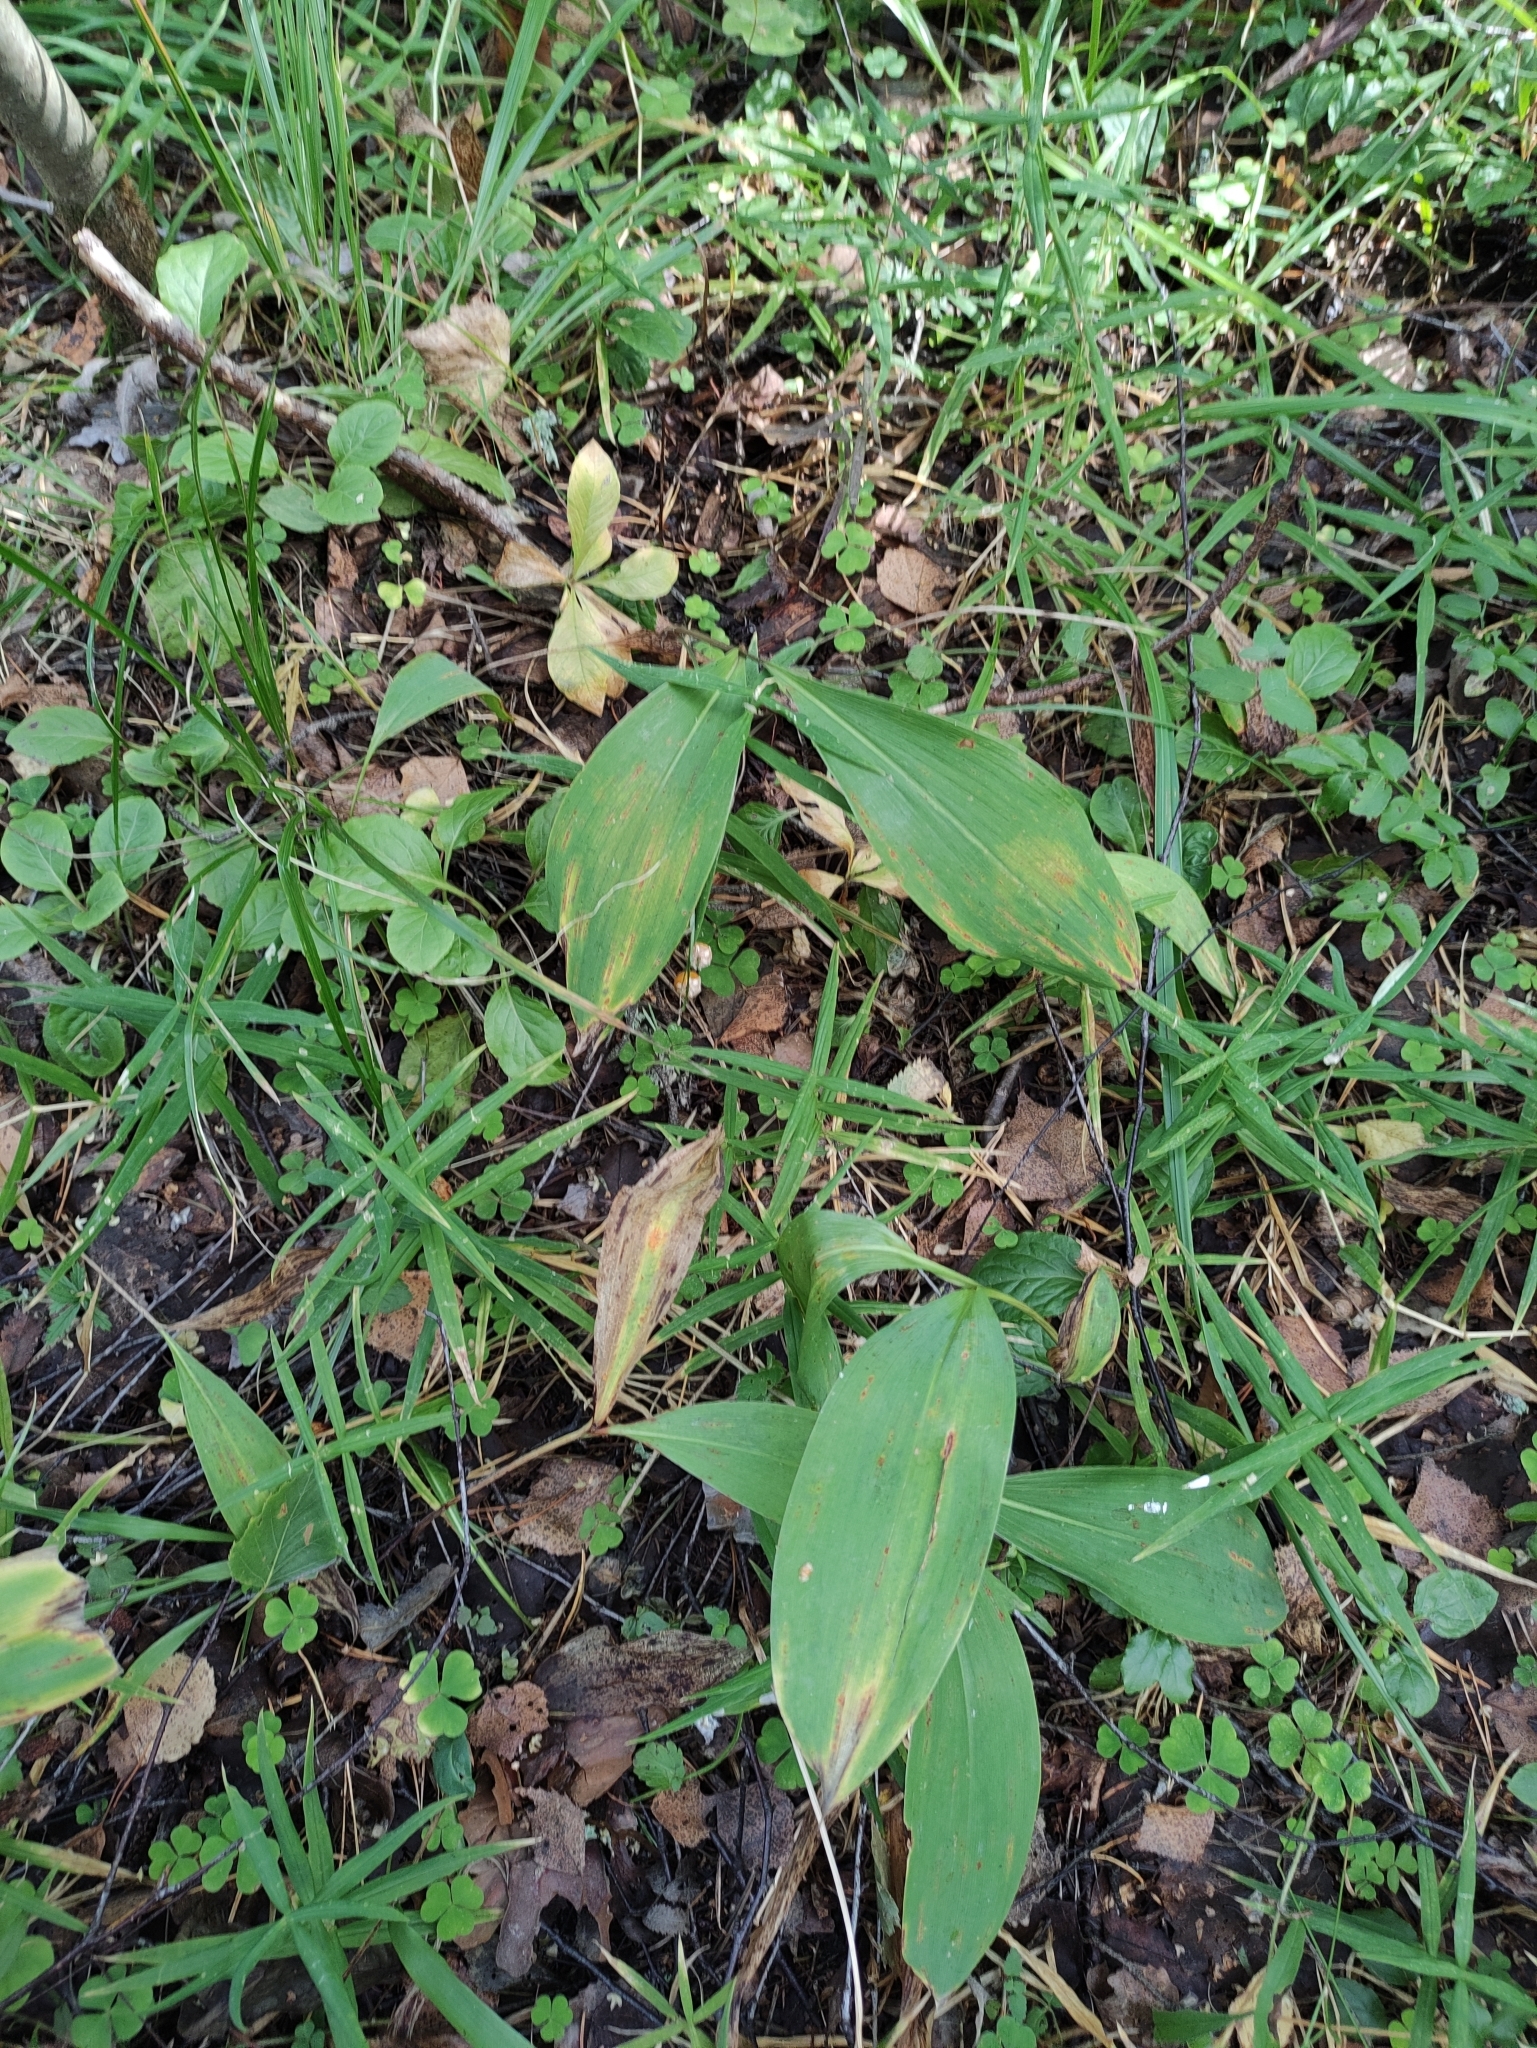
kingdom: Plantae
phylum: Tracheophyta
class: Liliopsida
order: Asparagales
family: Asparagaceae
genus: Convallaria
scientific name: Convallaria majalis
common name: Lily-of-the-valley
